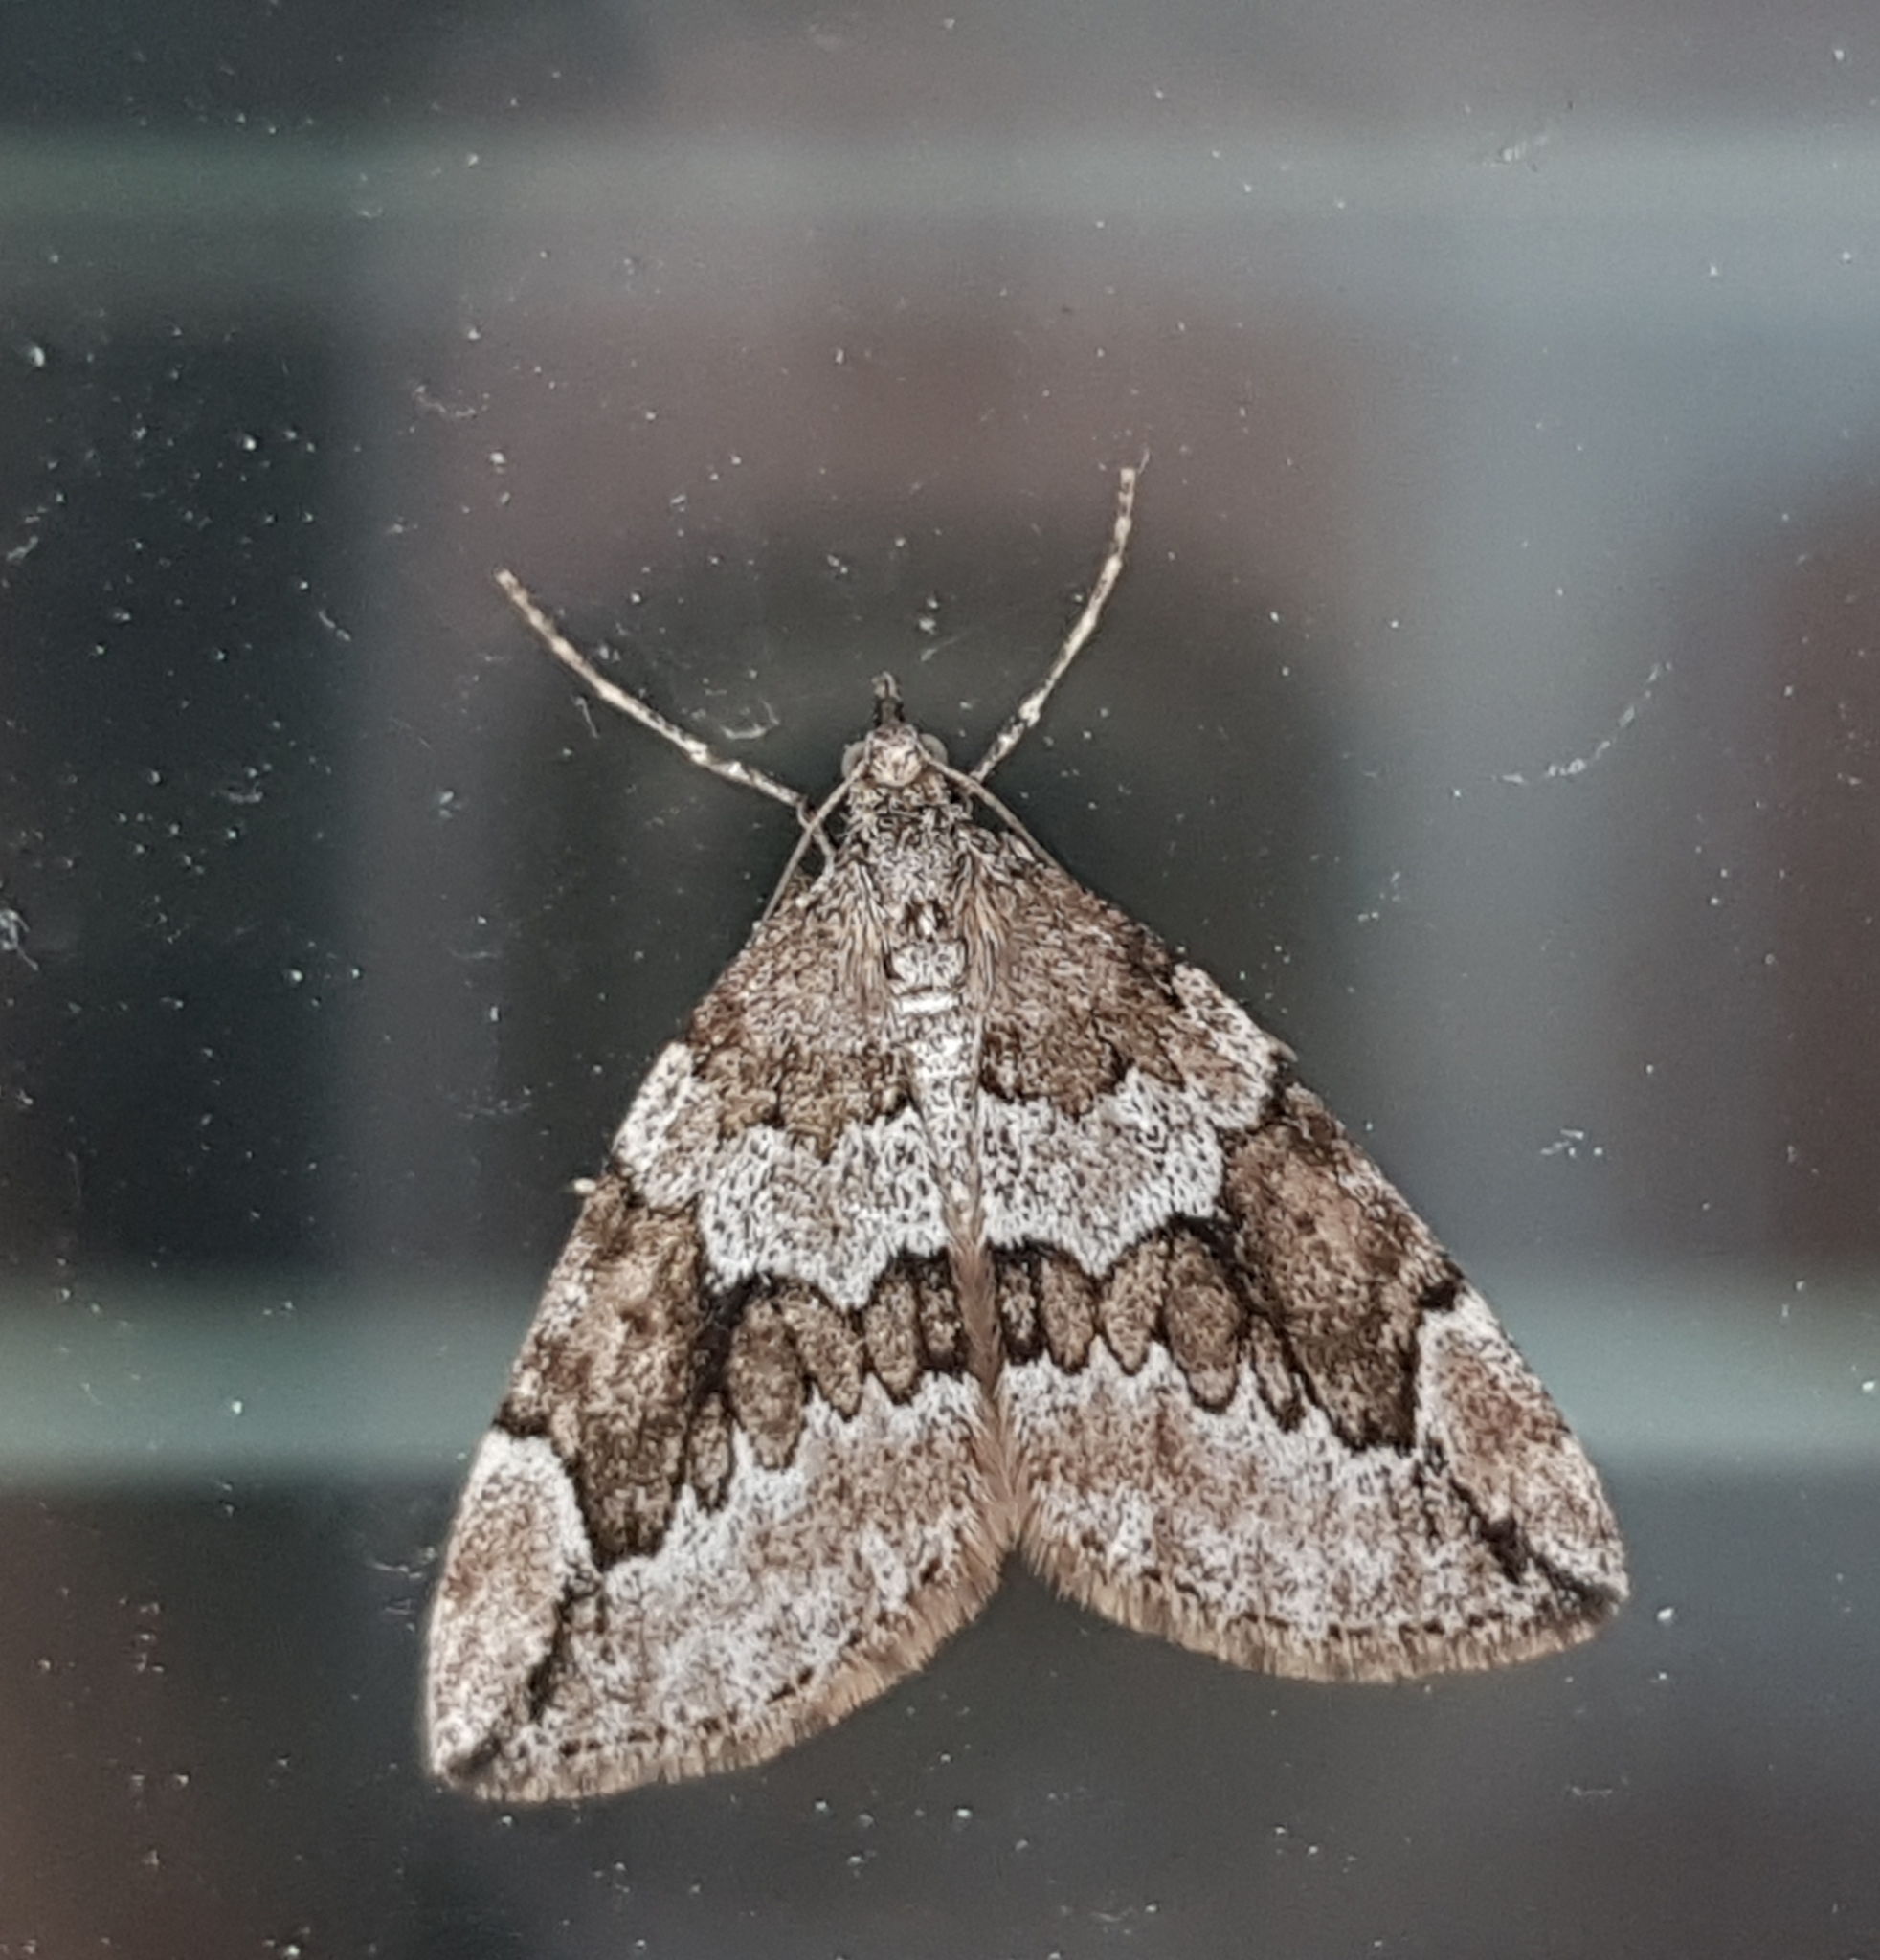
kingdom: Animalia
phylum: Arthropoda
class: Insecta
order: Lepidoptera
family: Geometridae
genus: Thera
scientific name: Thera juniperata
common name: Juniper carpet
